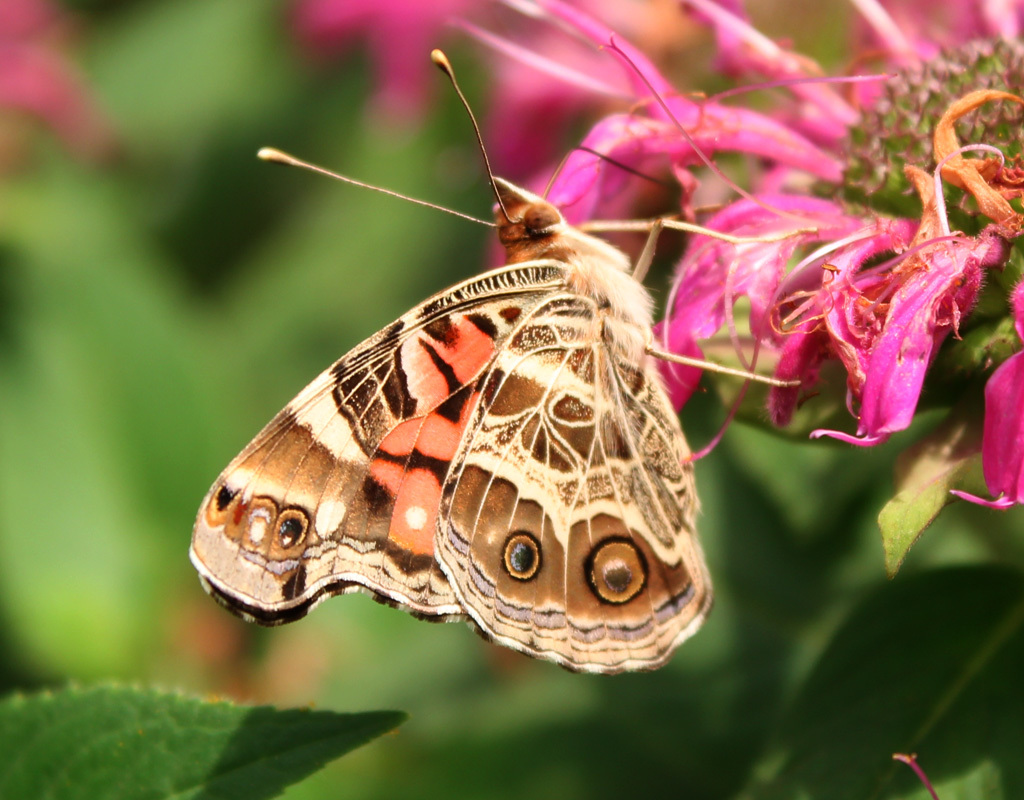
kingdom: Animalia
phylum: Arthropoda
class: Insecta
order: Lepidoptera
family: Nymphalidae
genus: Vanessa
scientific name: Vanessa virginiensis
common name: American lady
